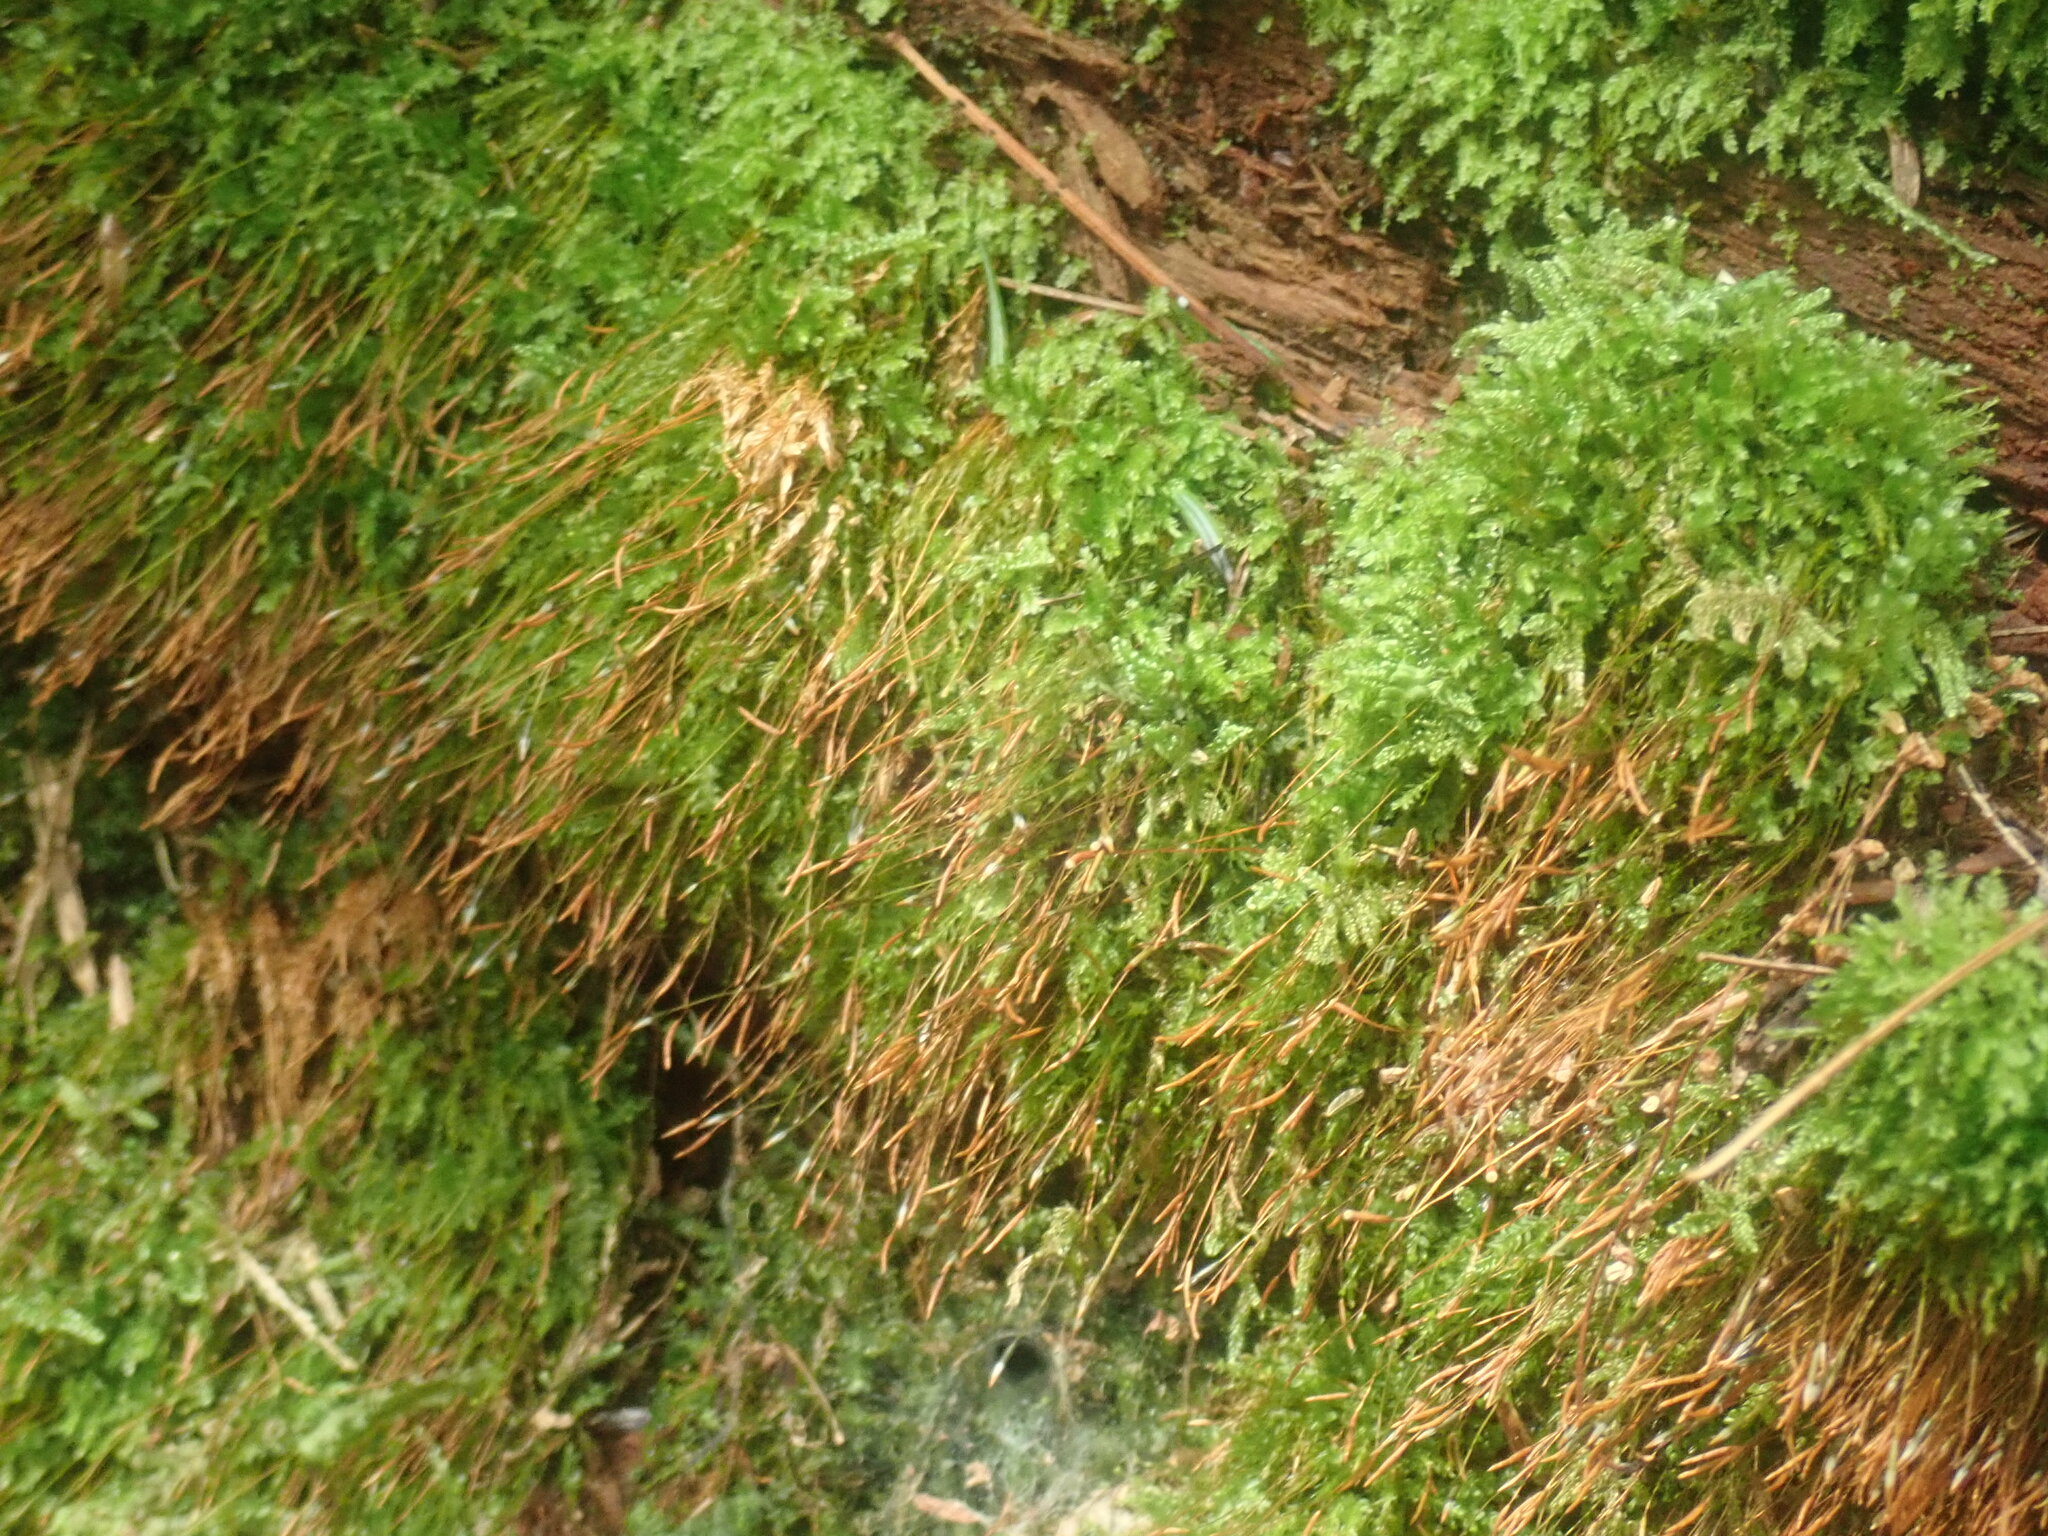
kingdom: Plantae
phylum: Bryophyta
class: Polytrichopsida
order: Tetraphidales
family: Tetraphidaceae
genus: Tetraphis
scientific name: Tetraphis pellucida
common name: Common four-toothed moss
